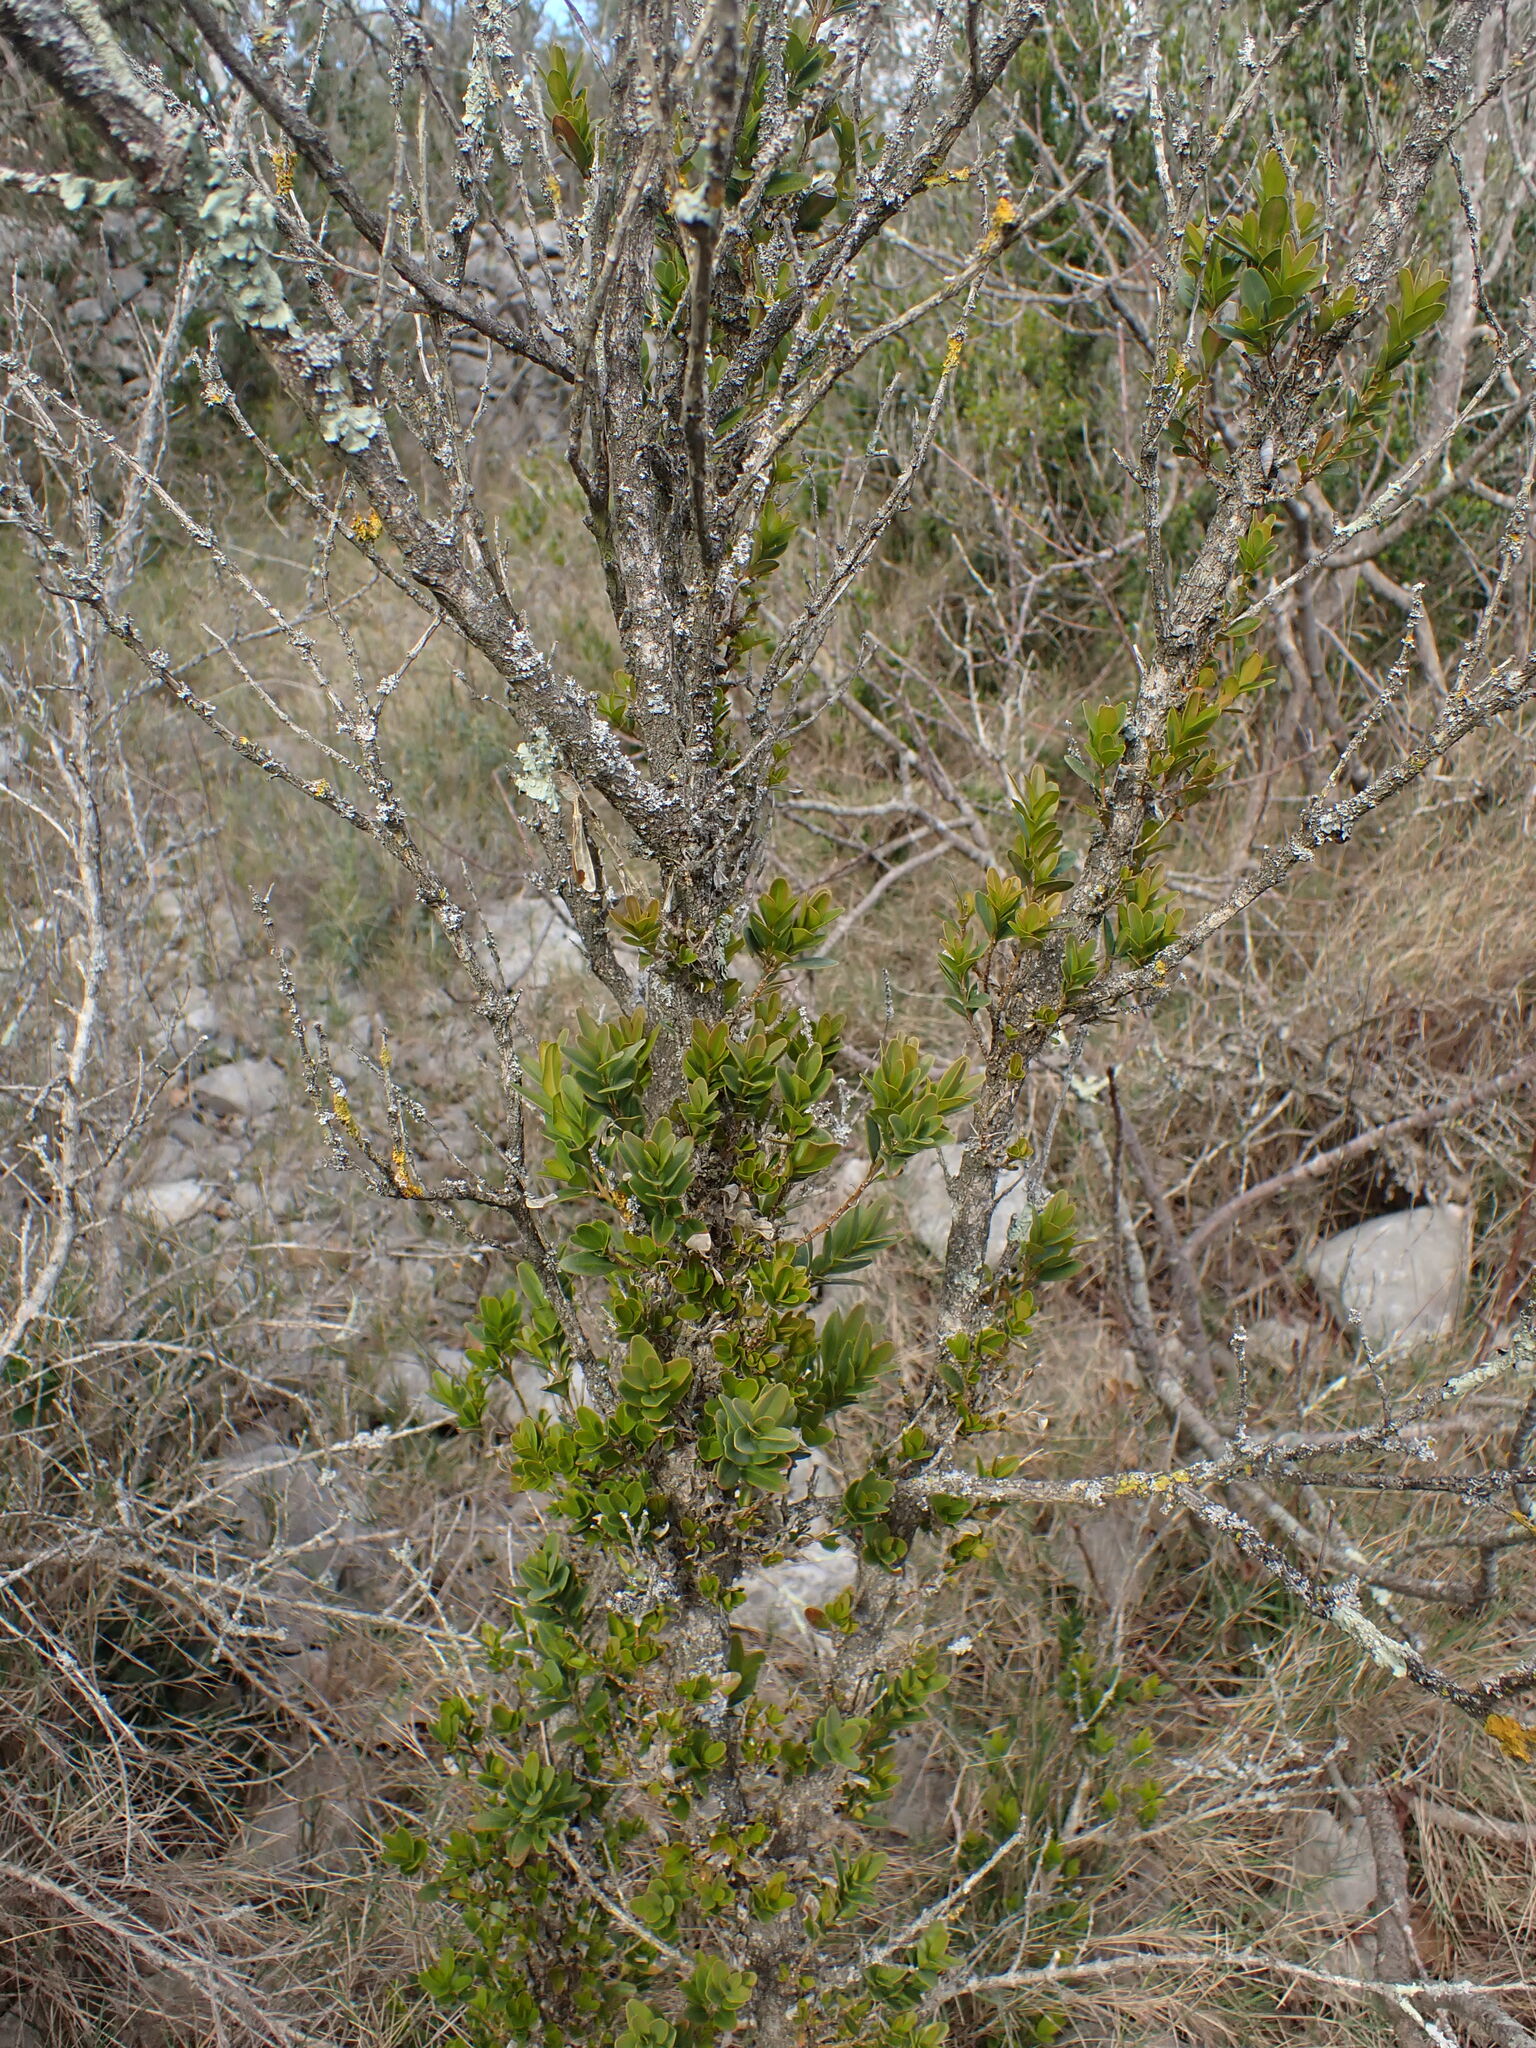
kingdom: Plantae
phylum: Tracheophyta
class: Magnoliopsida
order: Buxales
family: Buxaceae
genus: Buxus
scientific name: Buxus sempervirens
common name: Box
